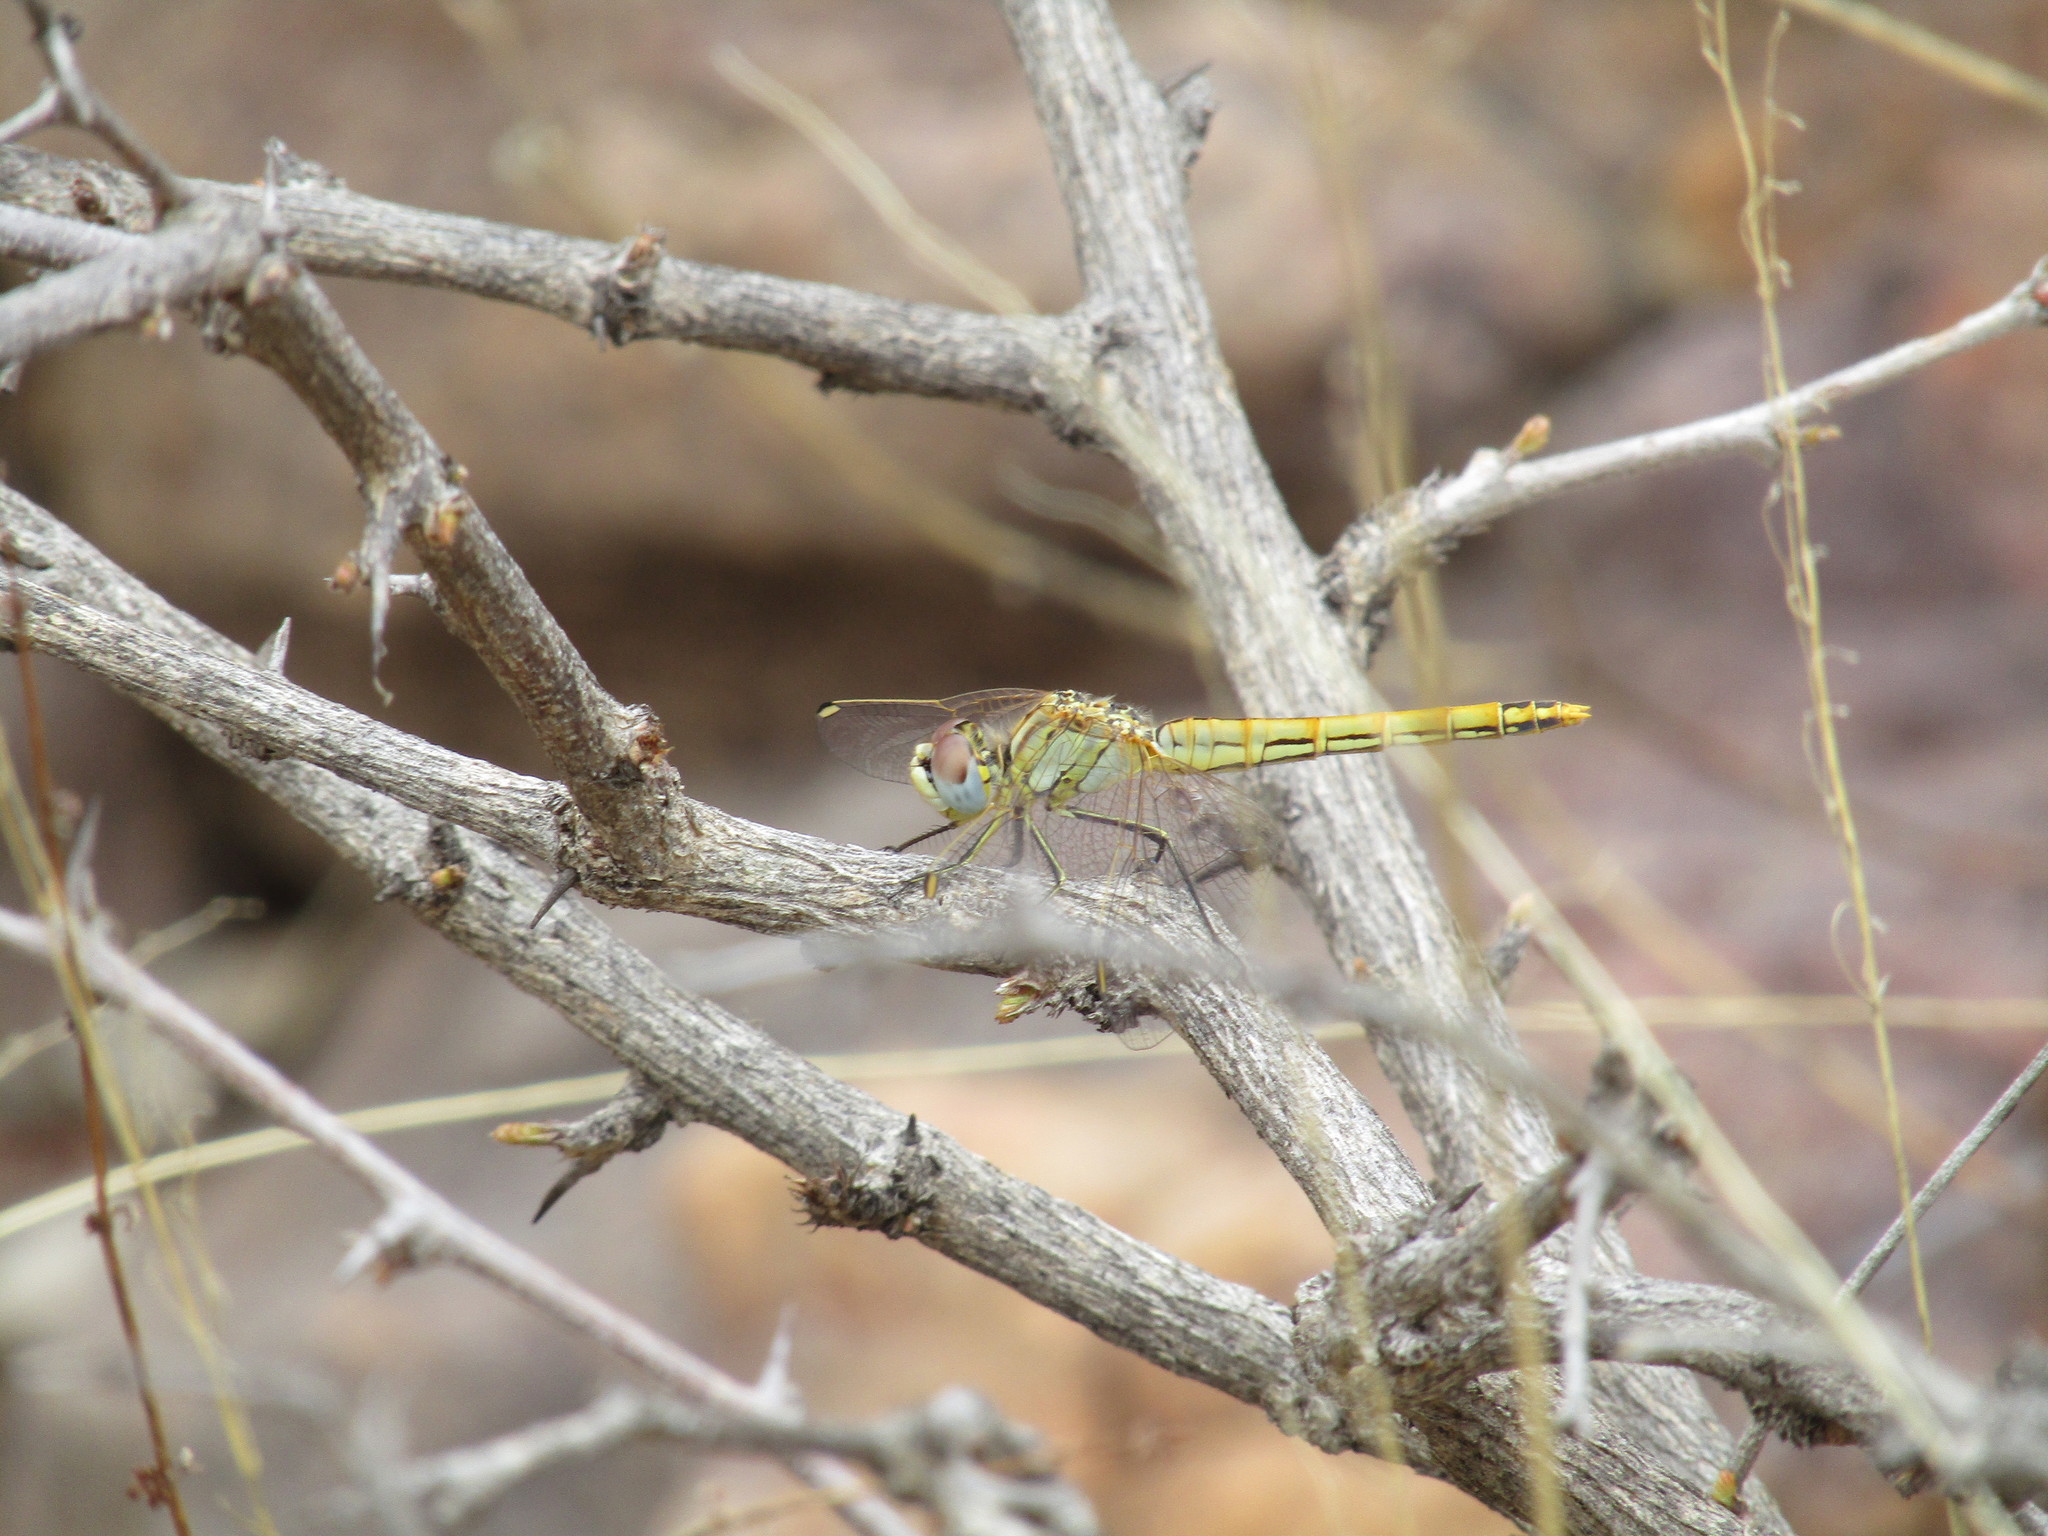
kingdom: Animalia
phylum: Arthropoda
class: Insecta
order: Odonata
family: Libellulidae
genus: Sympetrum
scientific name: Sympetrum fonscolombii
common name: Red-veined darter
